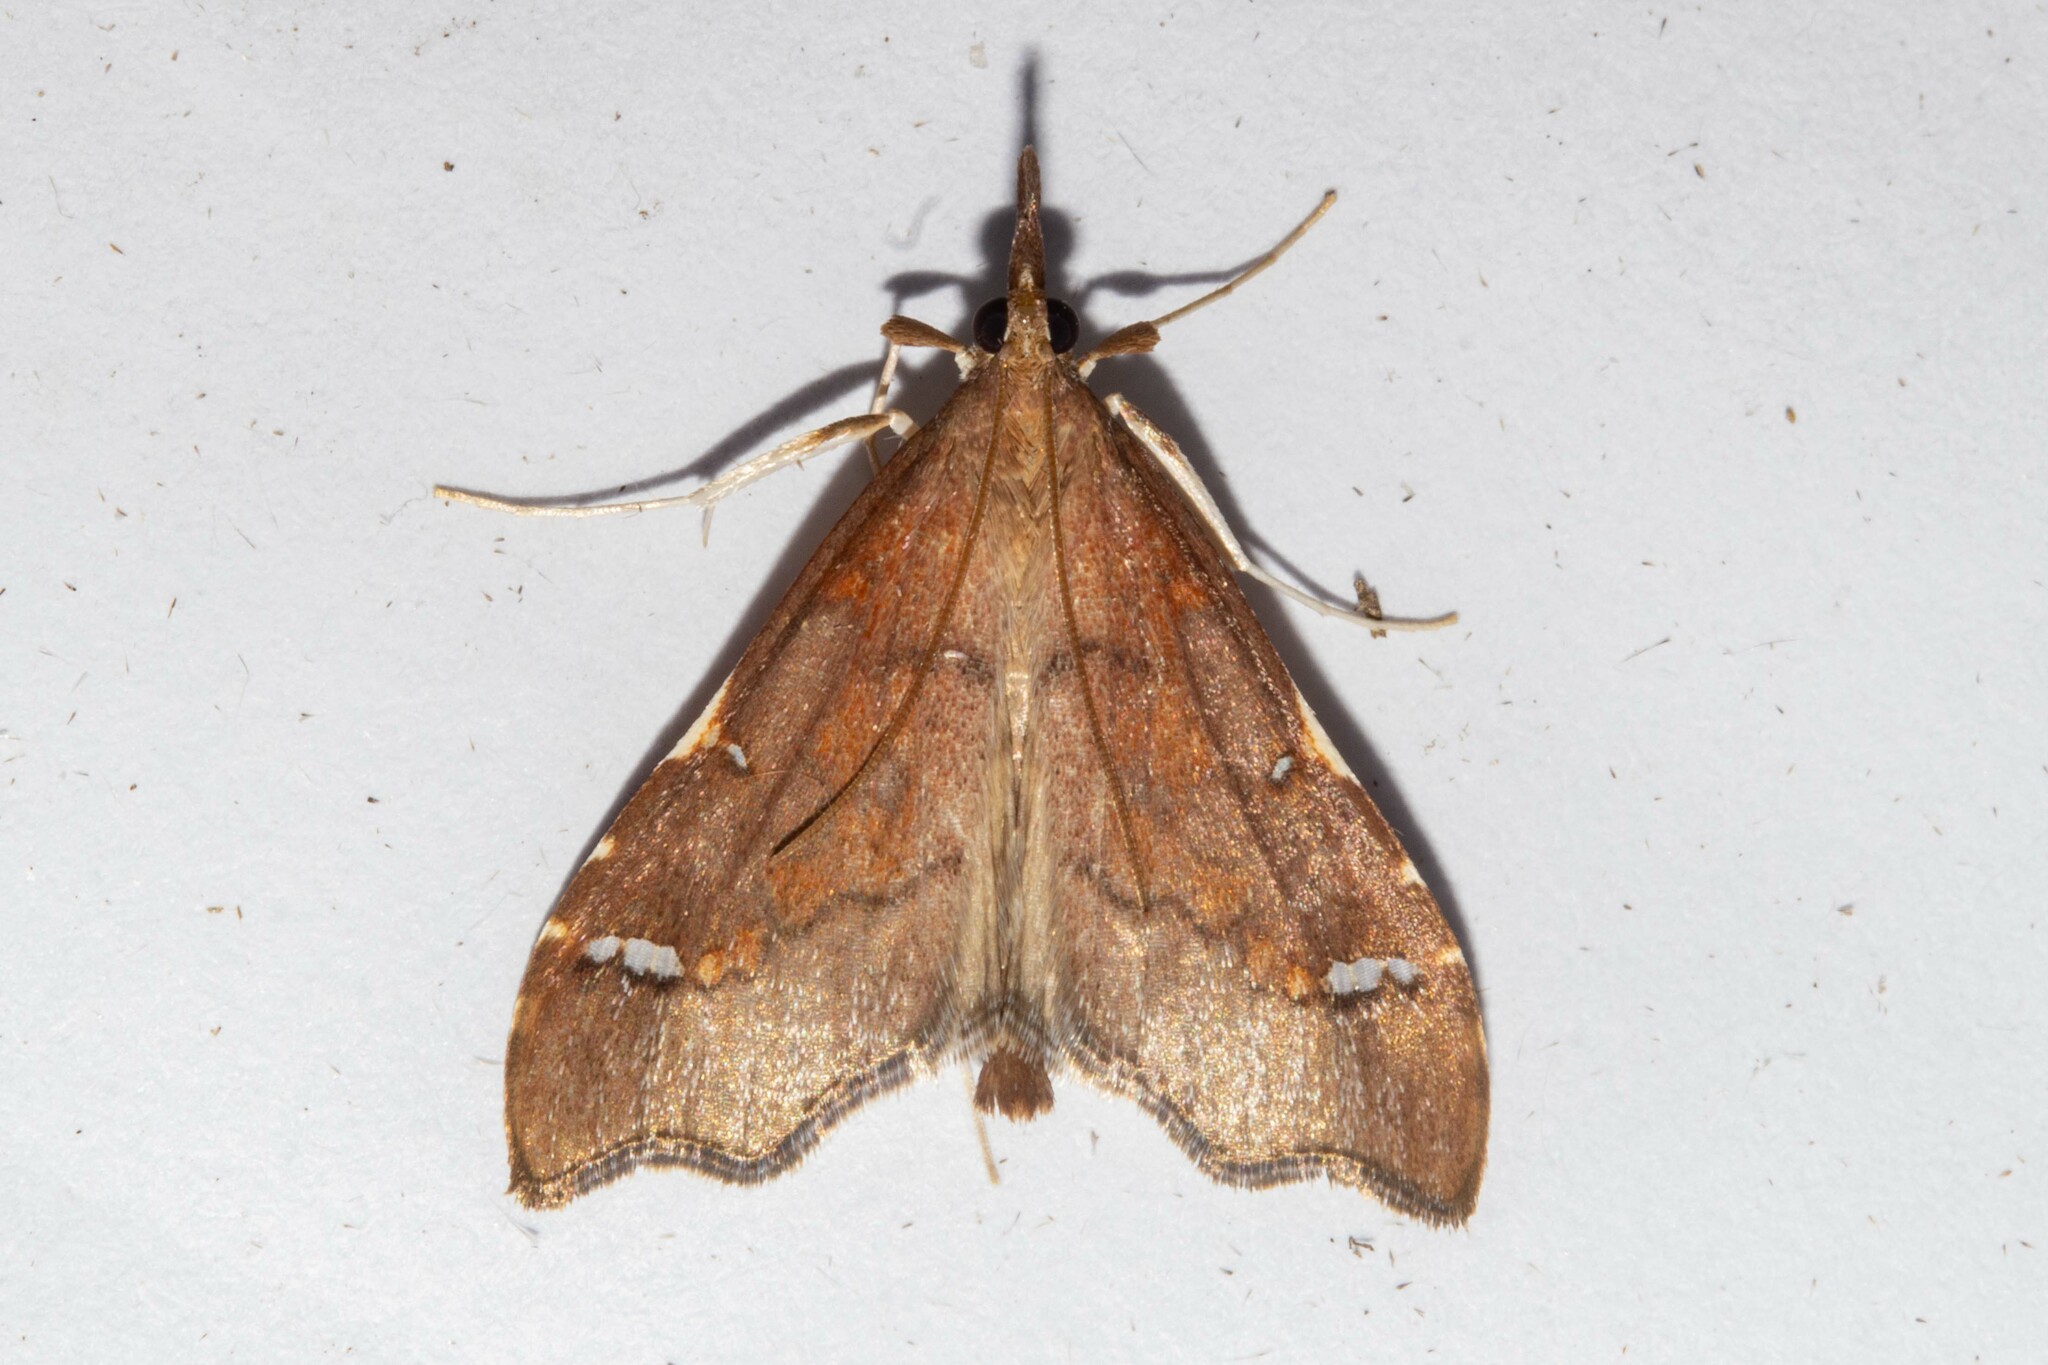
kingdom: Animalia
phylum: Arthropoda
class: Insecta
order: Lepidoptera
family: Crambidae
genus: Deana
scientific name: Deana hybreasalis
